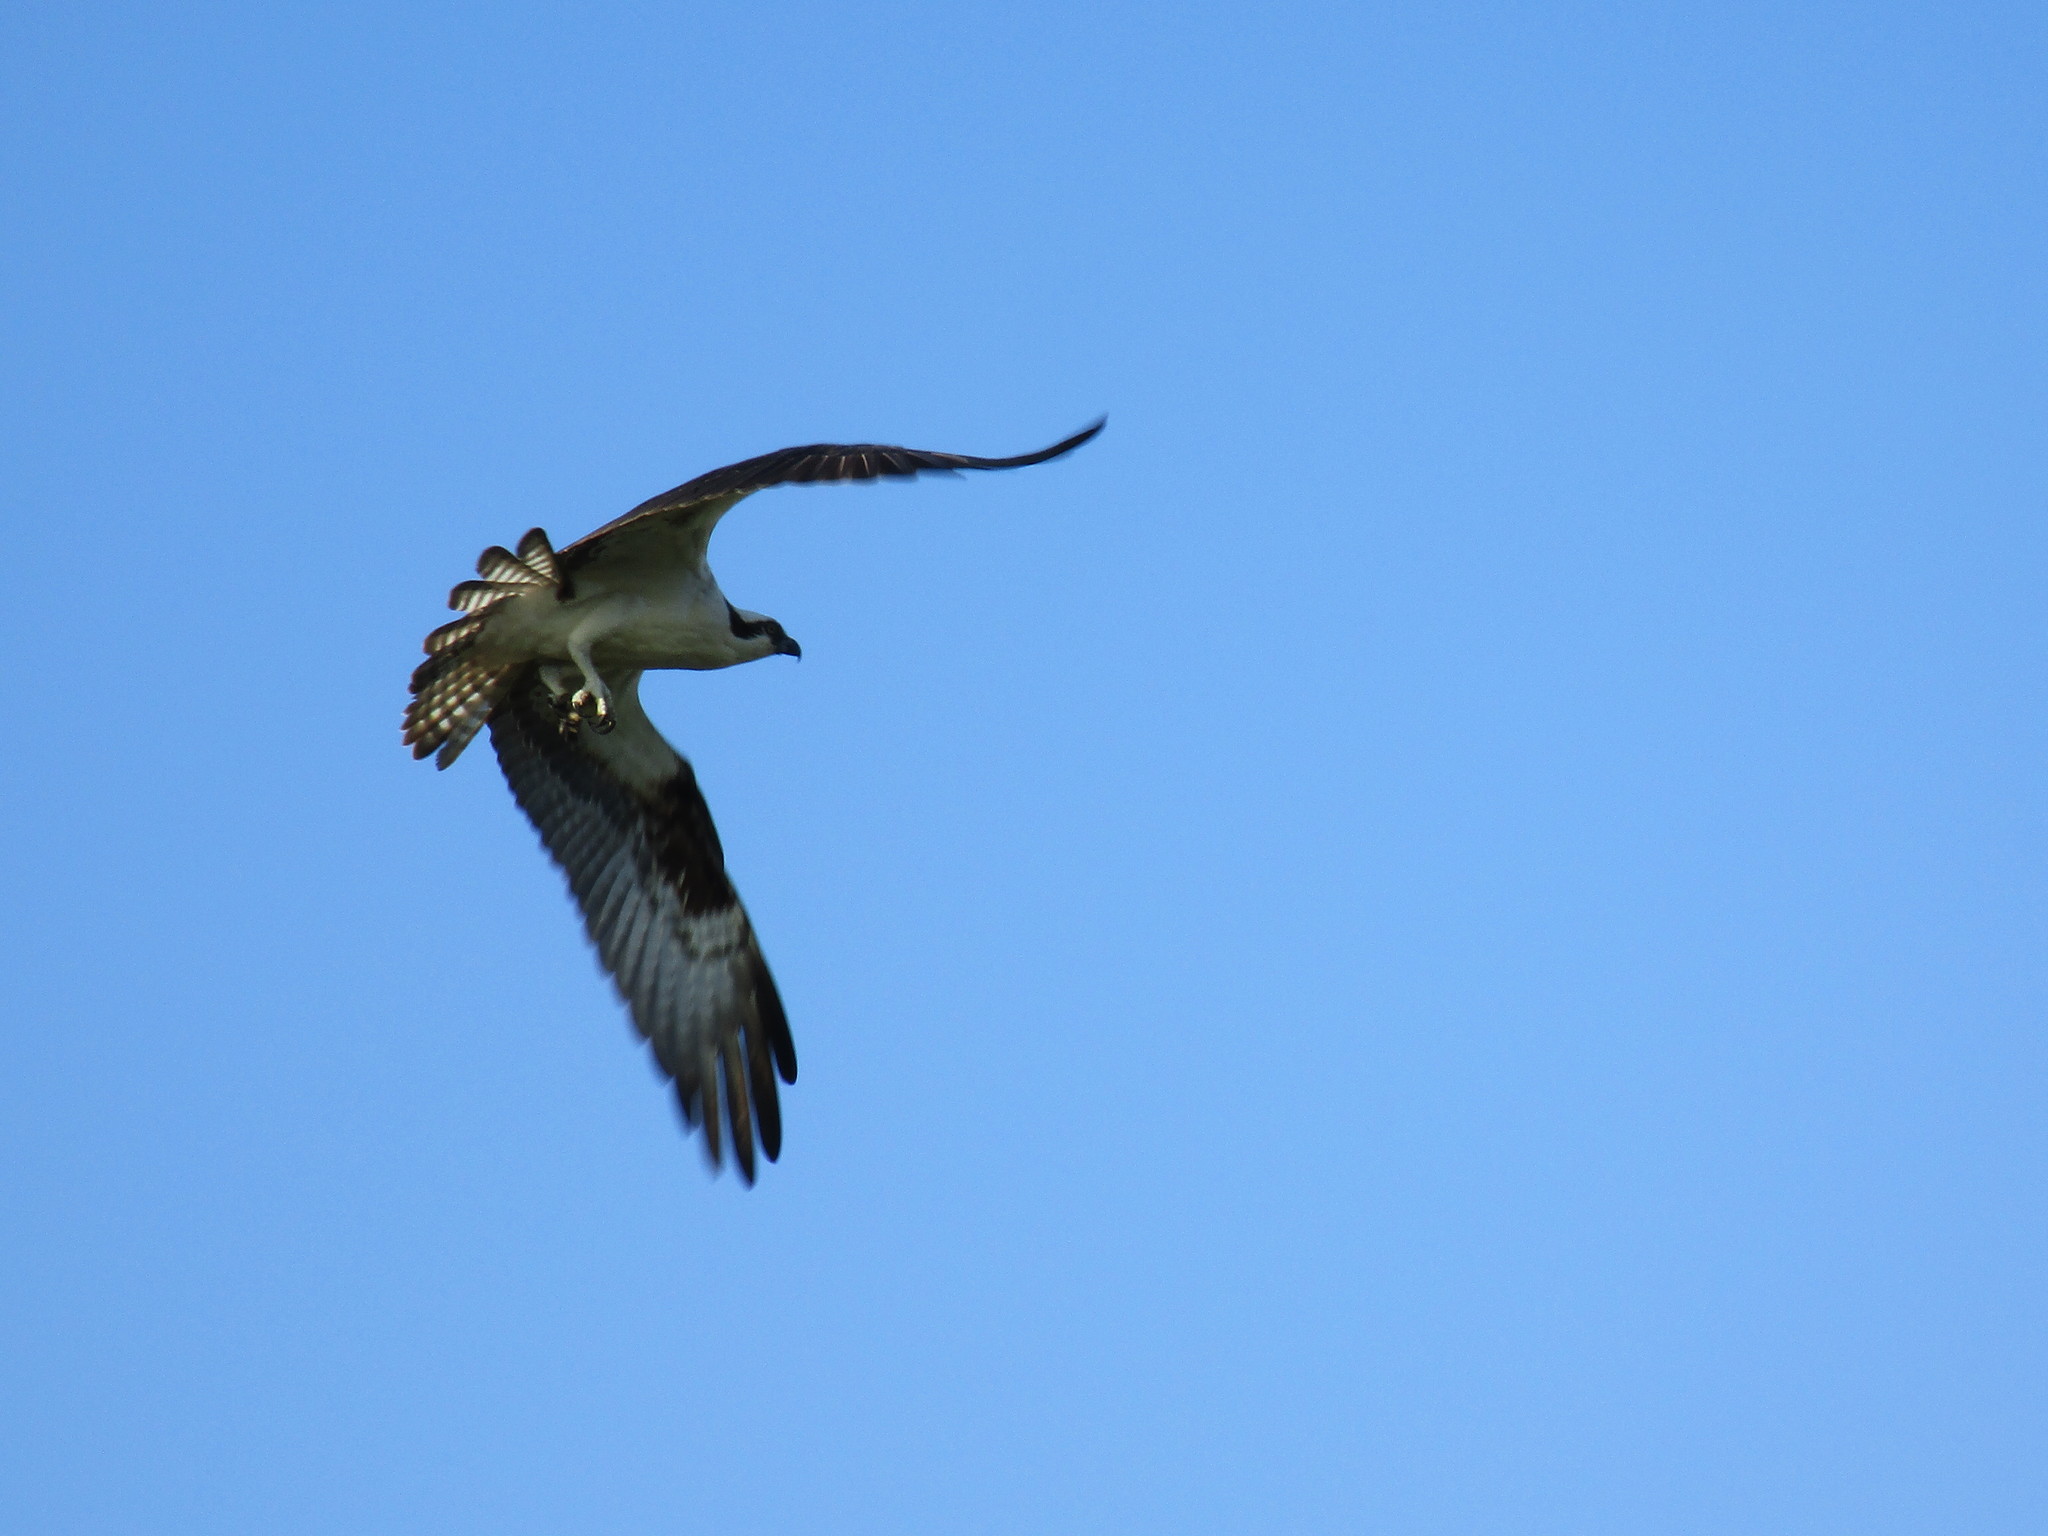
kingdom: Animalia
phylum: Chordata
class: Aves
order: Accipitriformes
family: Pandionidae
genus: Pandion
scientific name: Pandion haliaetus
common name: Osprey
